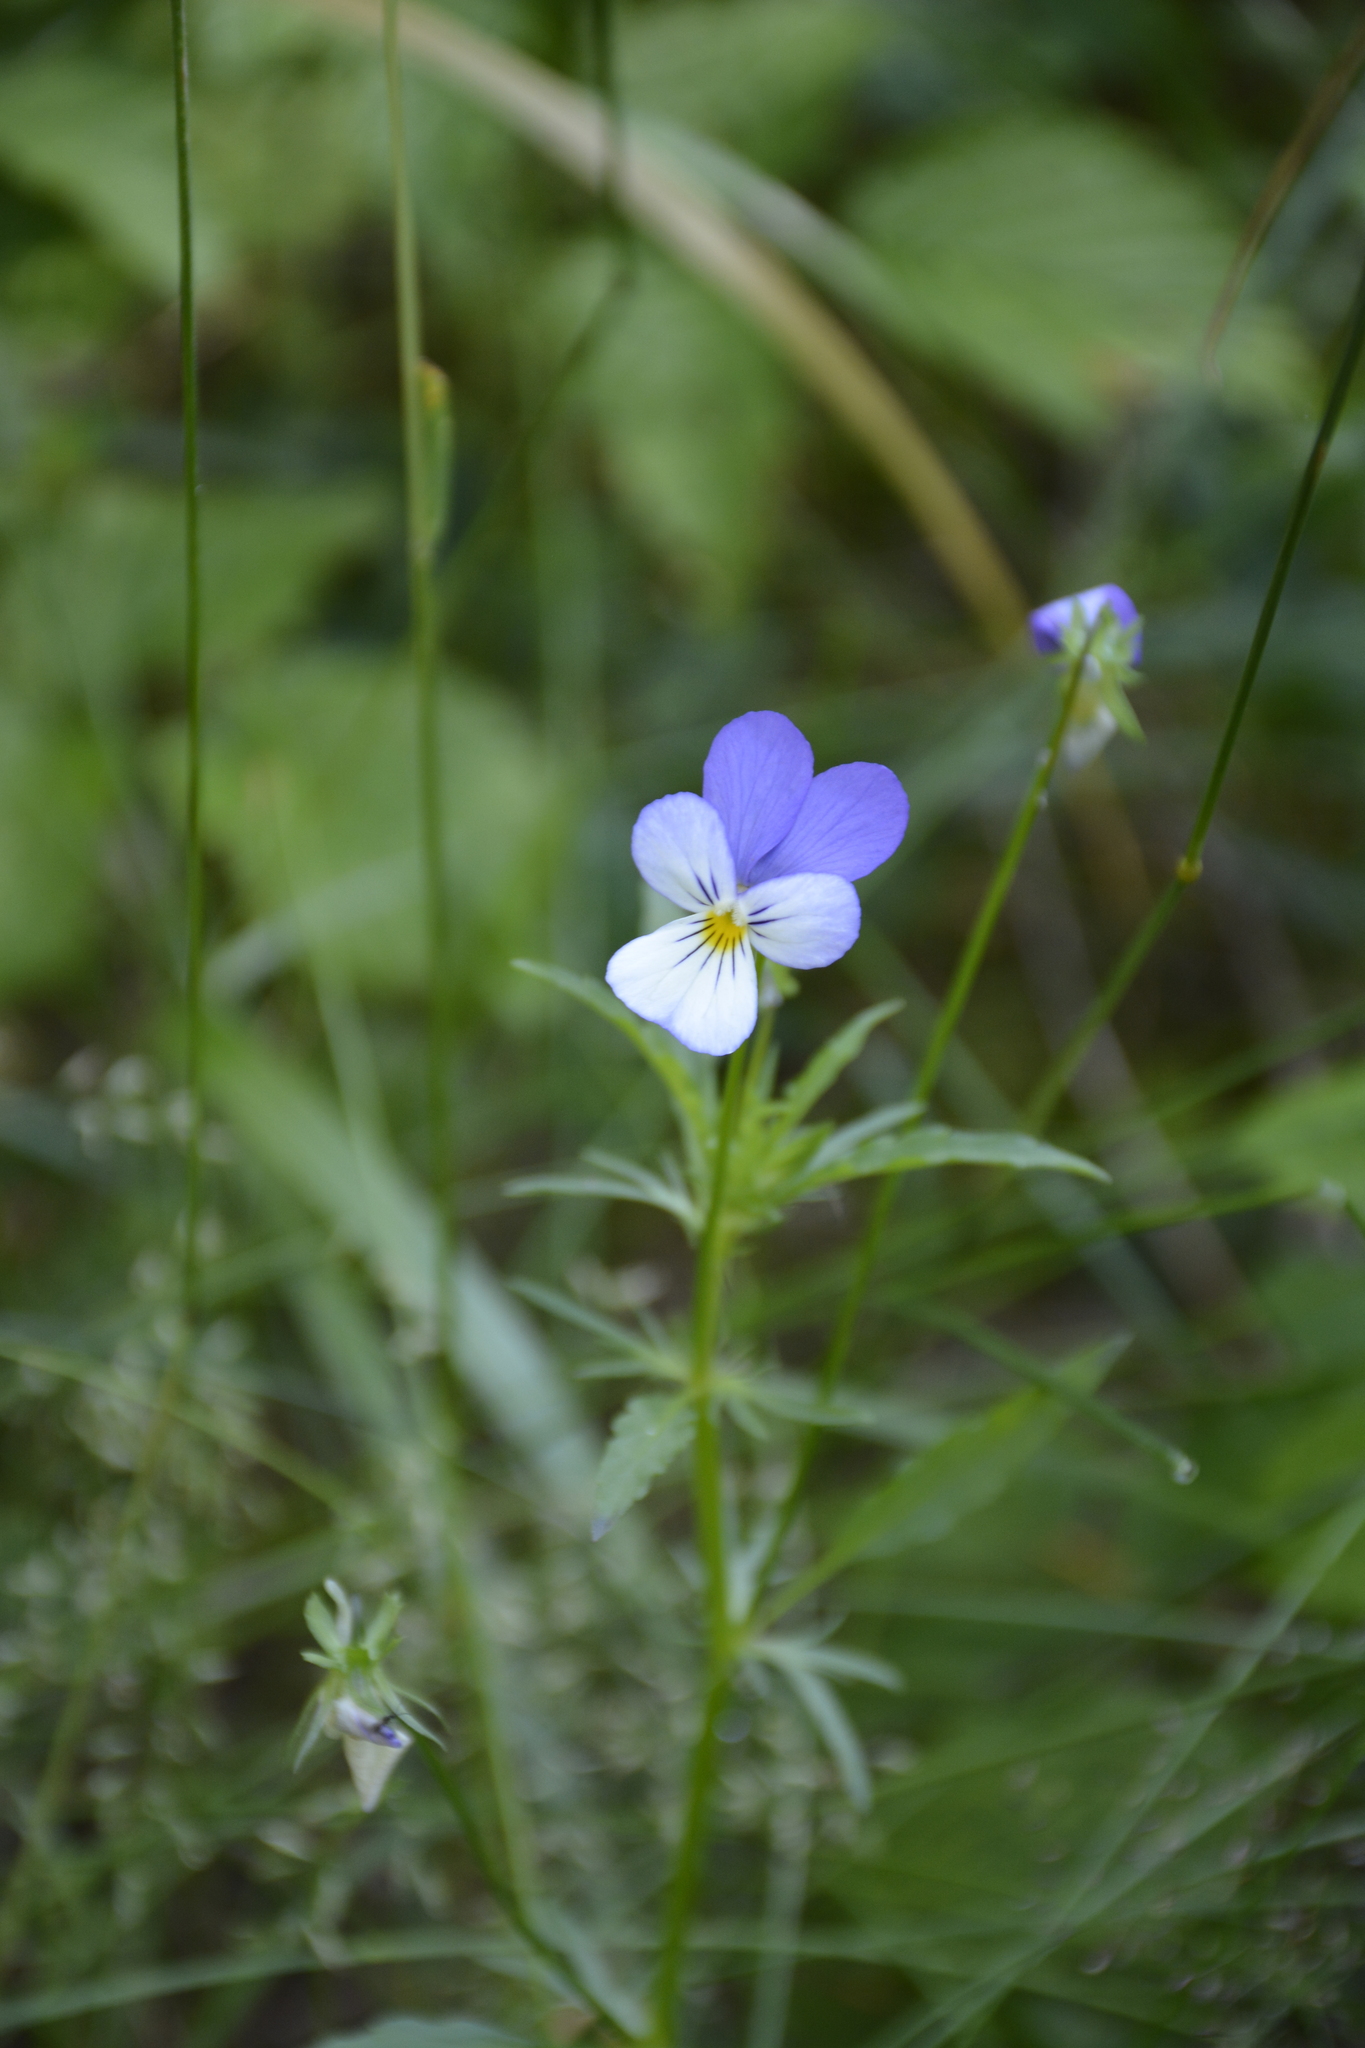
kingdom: Plantae
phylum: Tracheophyta
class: Magnoliopsida
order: Malpighiales
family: Violaceae
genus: Viola
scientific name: Viola tricolor
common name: Pansy
